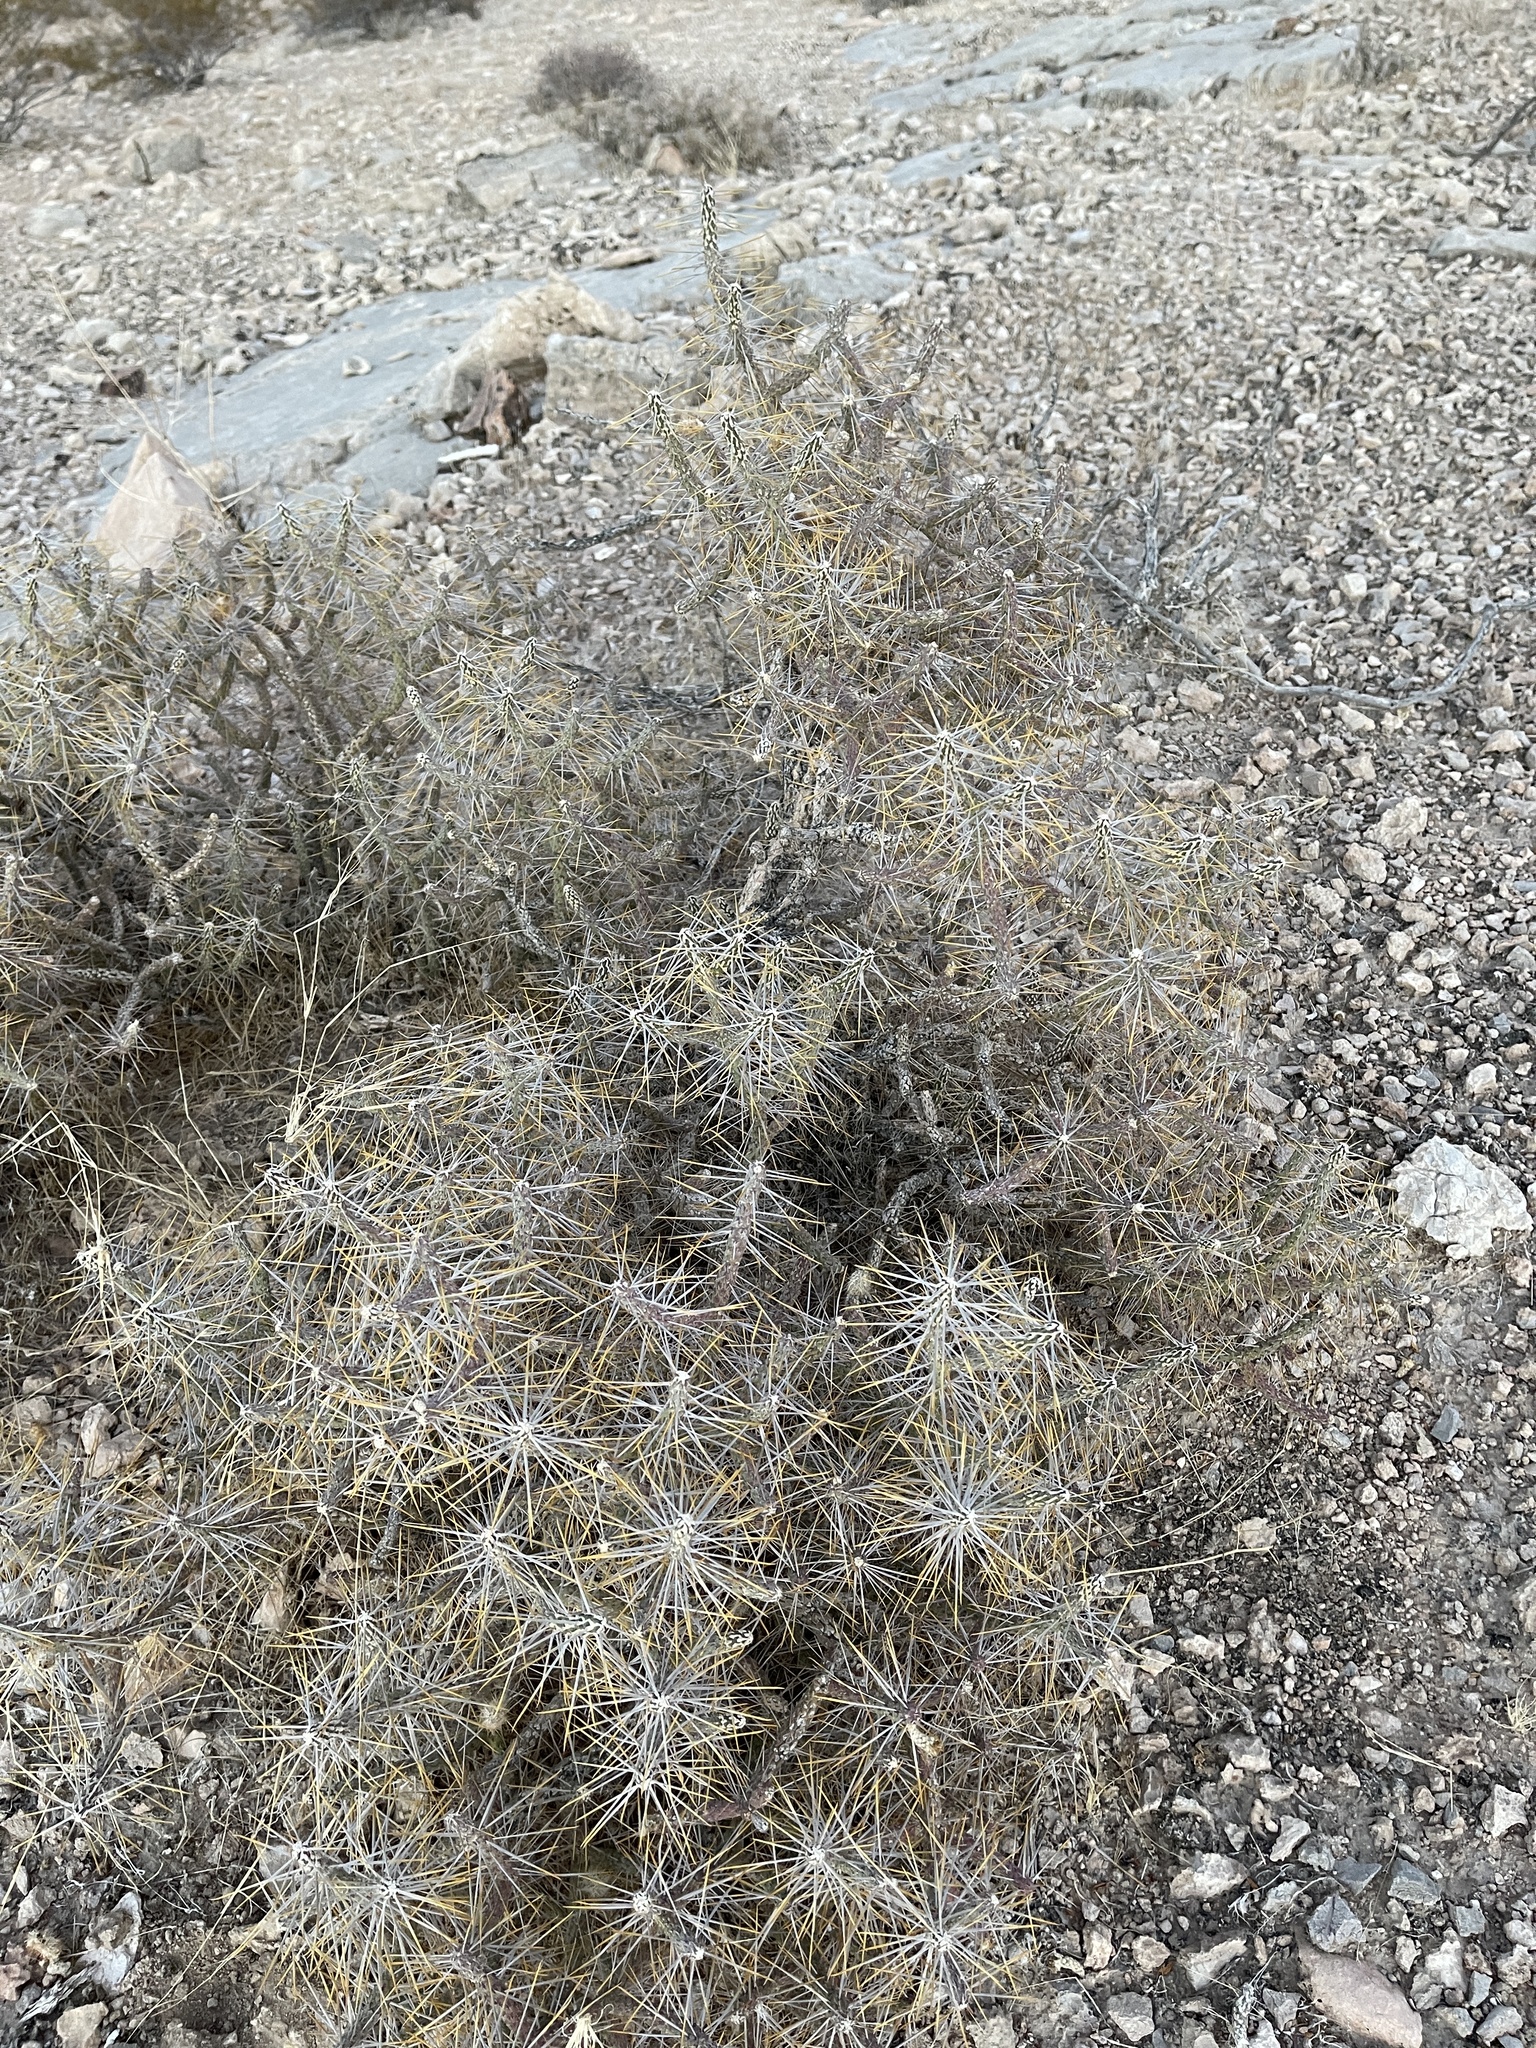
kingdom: Plantae
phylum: Tracheophyta
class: Magnoliopsida
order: Caryophyllales
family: Cactaceae
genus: Cylindropuntia
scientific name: Cylindropuntia ramosissima
